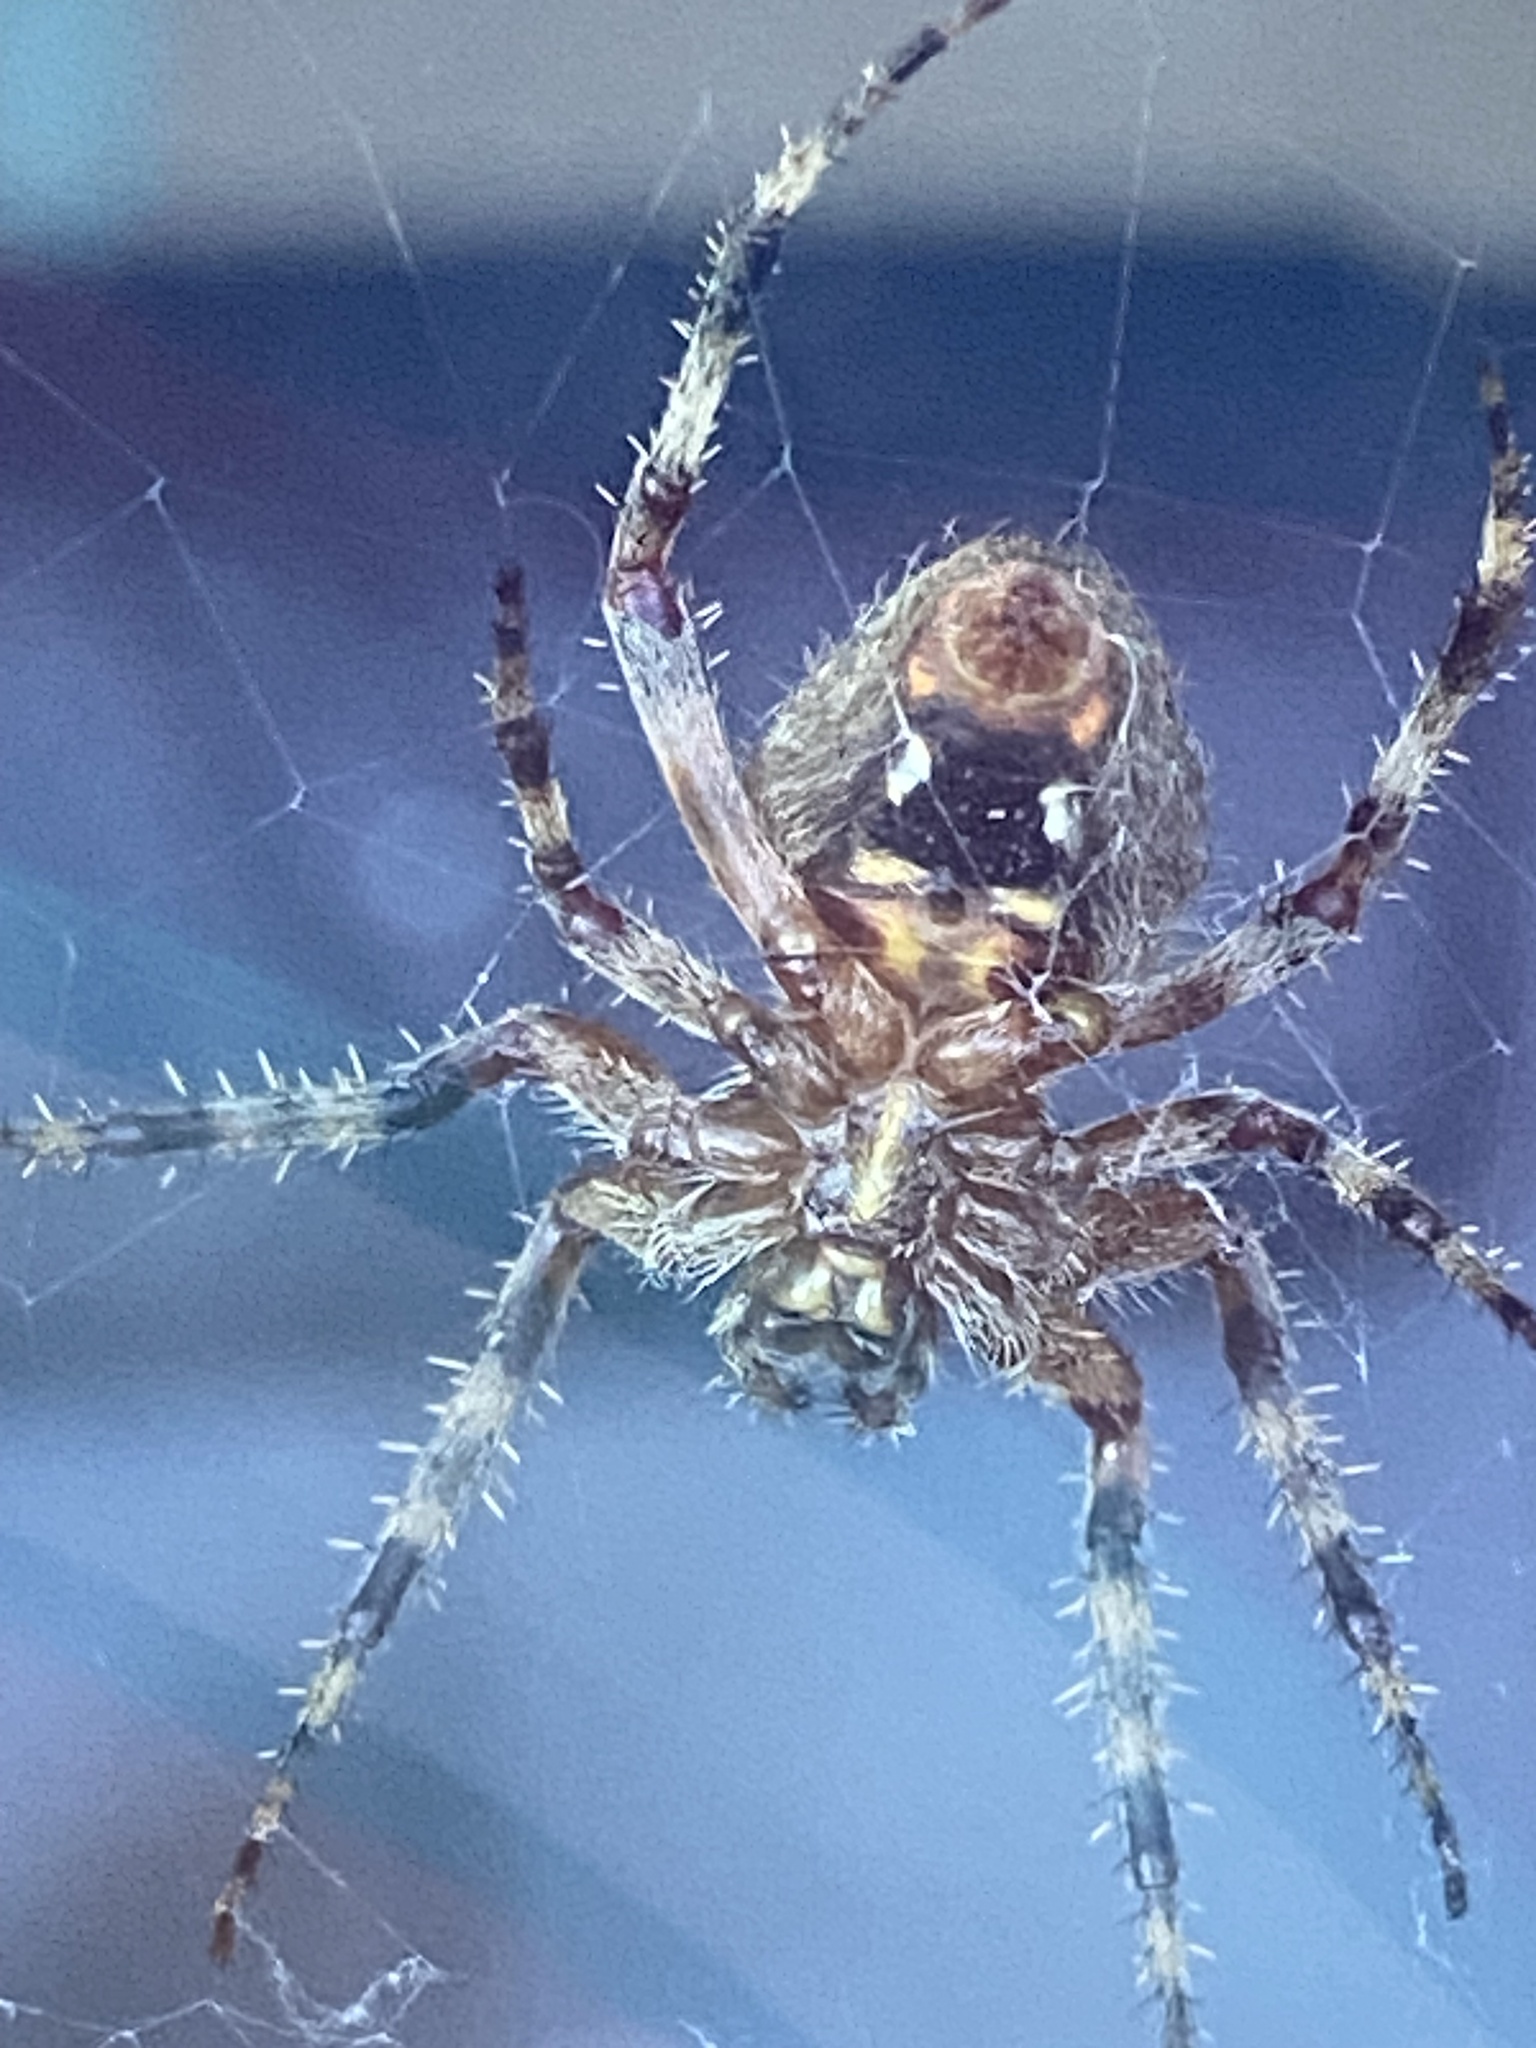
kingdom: Animalia
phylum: Arthropoda
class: Arachnida
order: Araneae
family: Araneidae
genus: Neoscona
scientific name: Neoscona crucifera
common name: Spotted orbweaver
